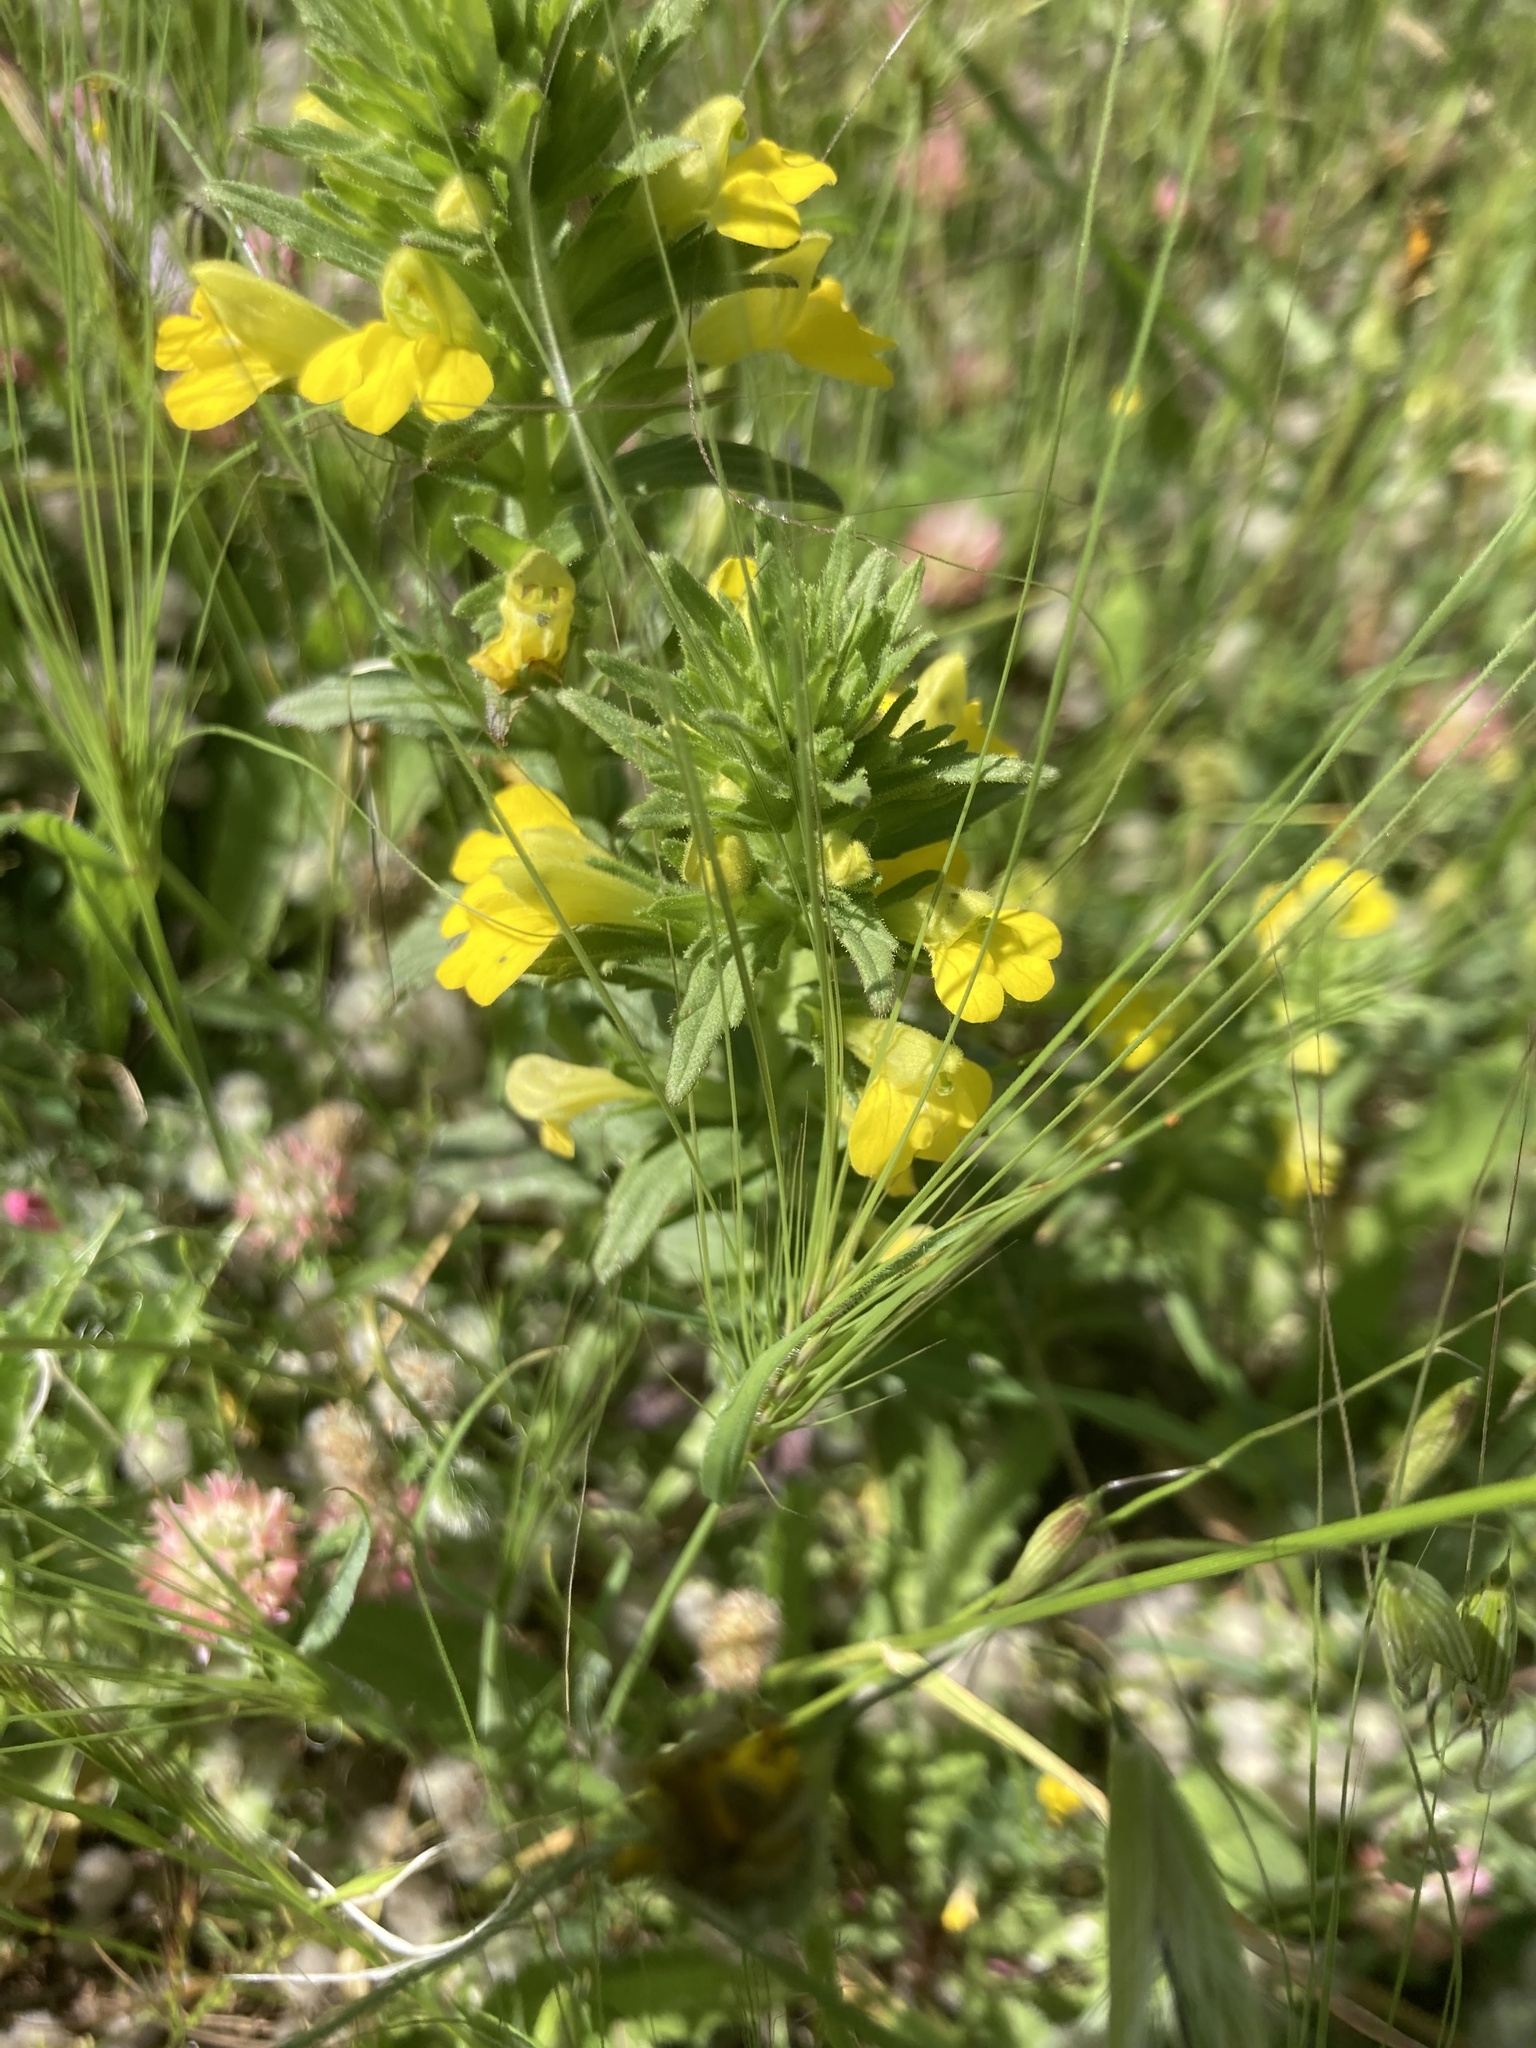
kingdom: Plantae
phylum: Tracheophyta
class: Magnoliopsida
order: Lamiales
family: Orobanchaceae
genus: Bellardia
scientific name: Bellardia viscosa
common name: Sticky parentucellia
